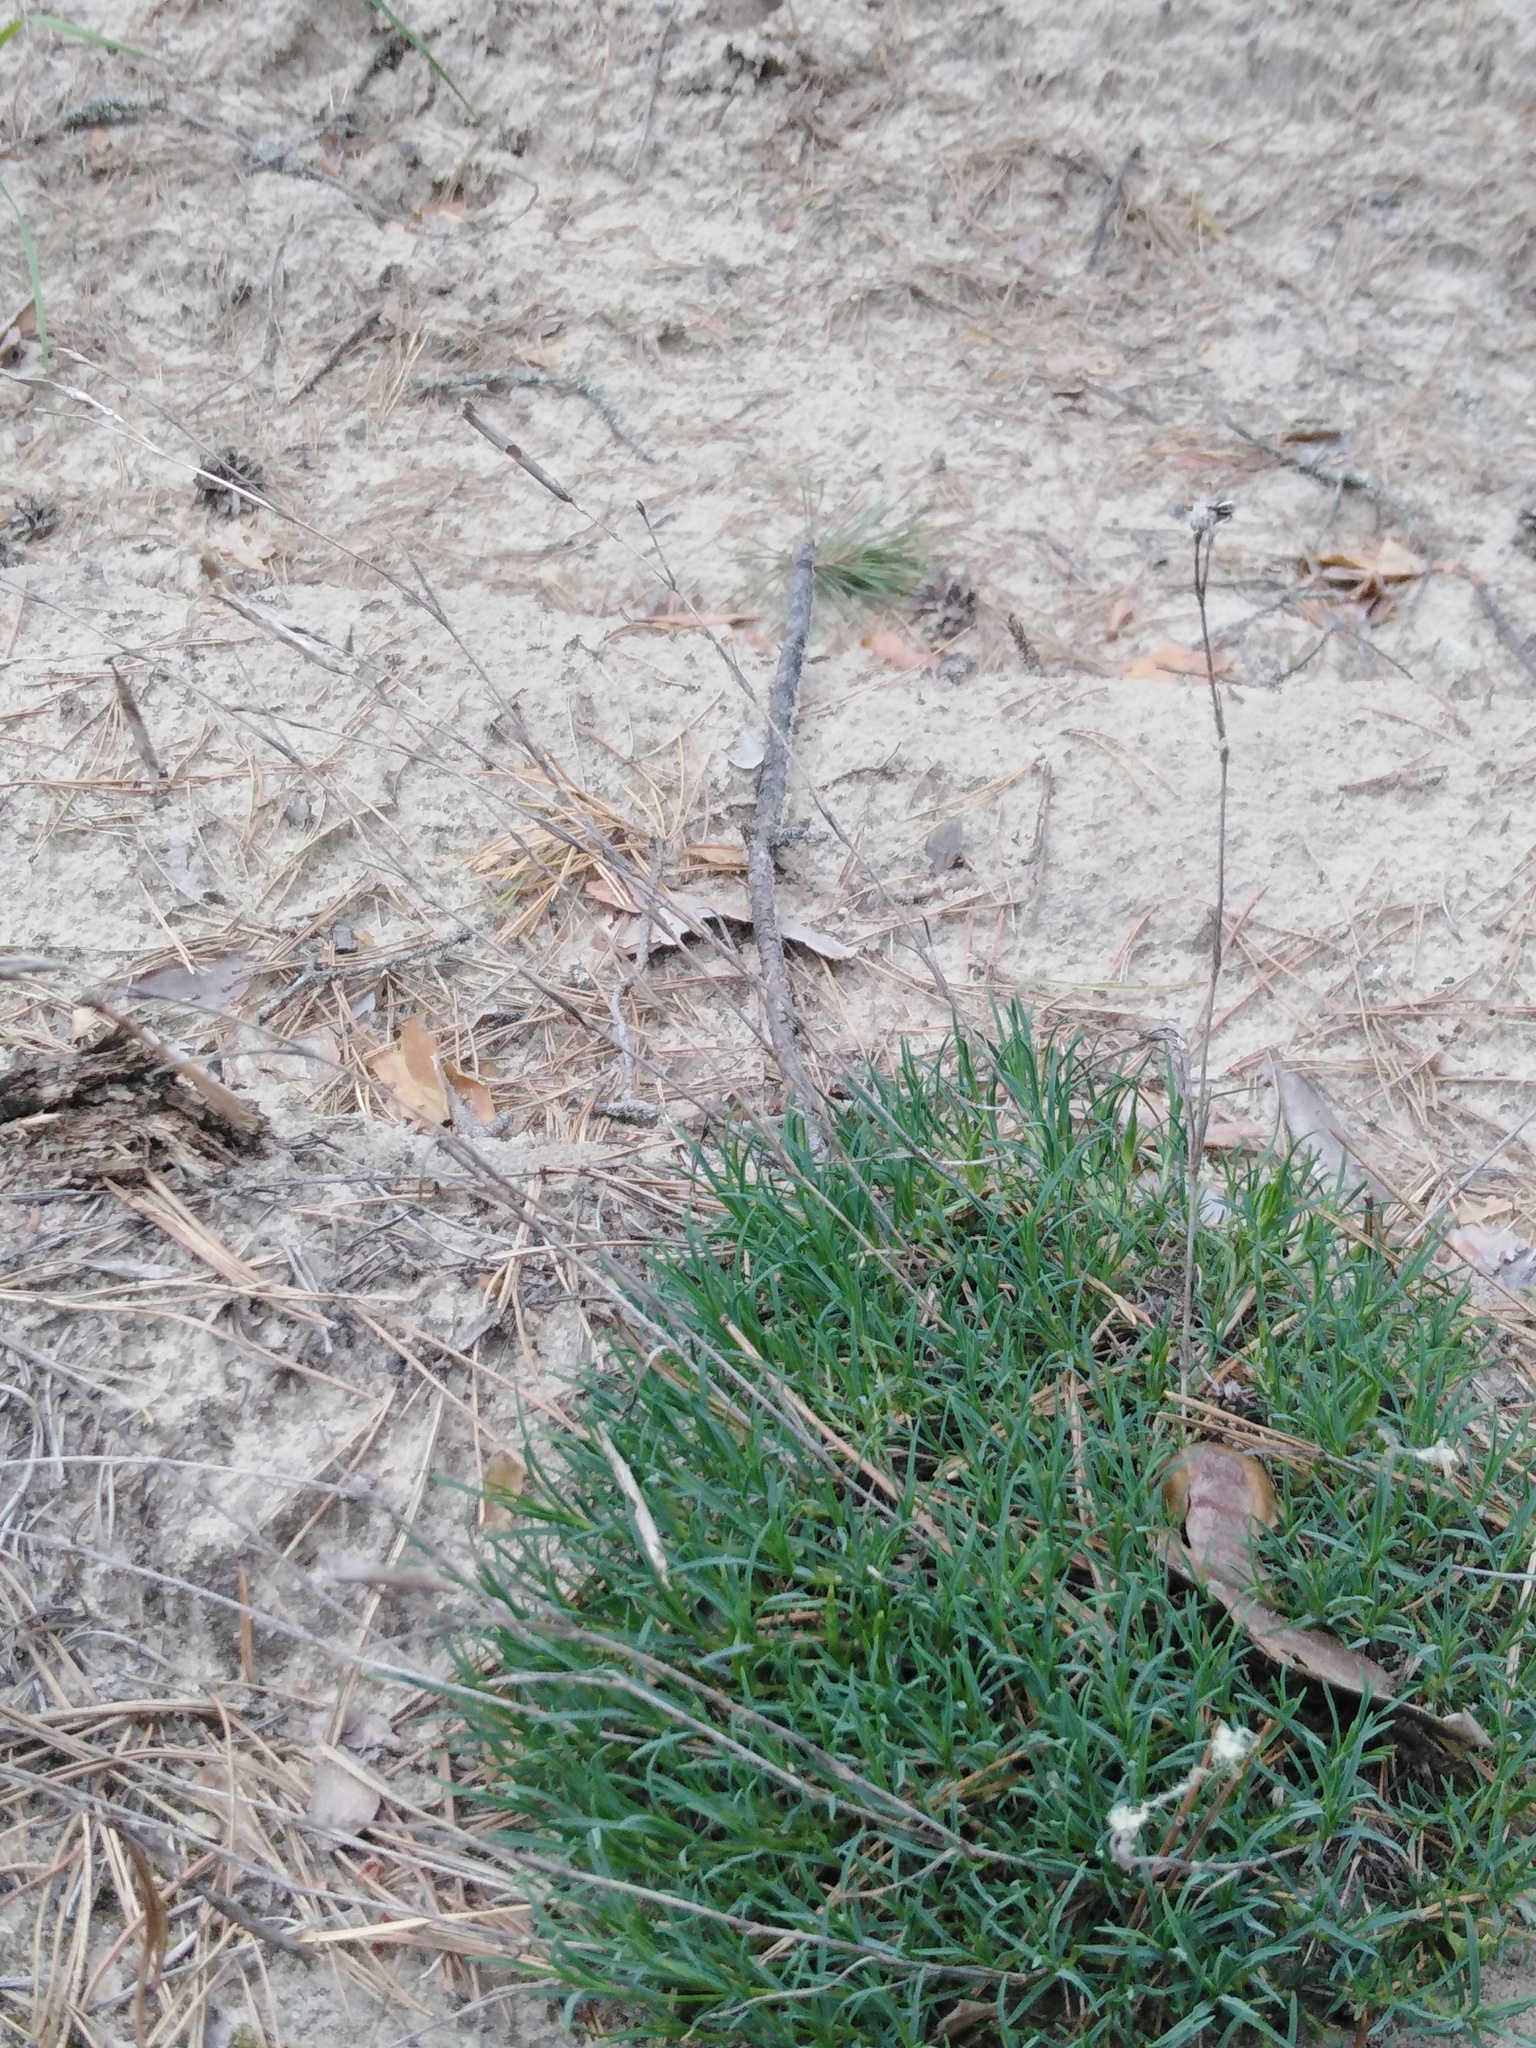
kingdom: Plantae
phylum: Tracheophyta
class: Magnoliopsida
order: Caryophyllales
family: Caryophyllaceae
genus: Dianthus
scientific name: Dianthus volgicus
